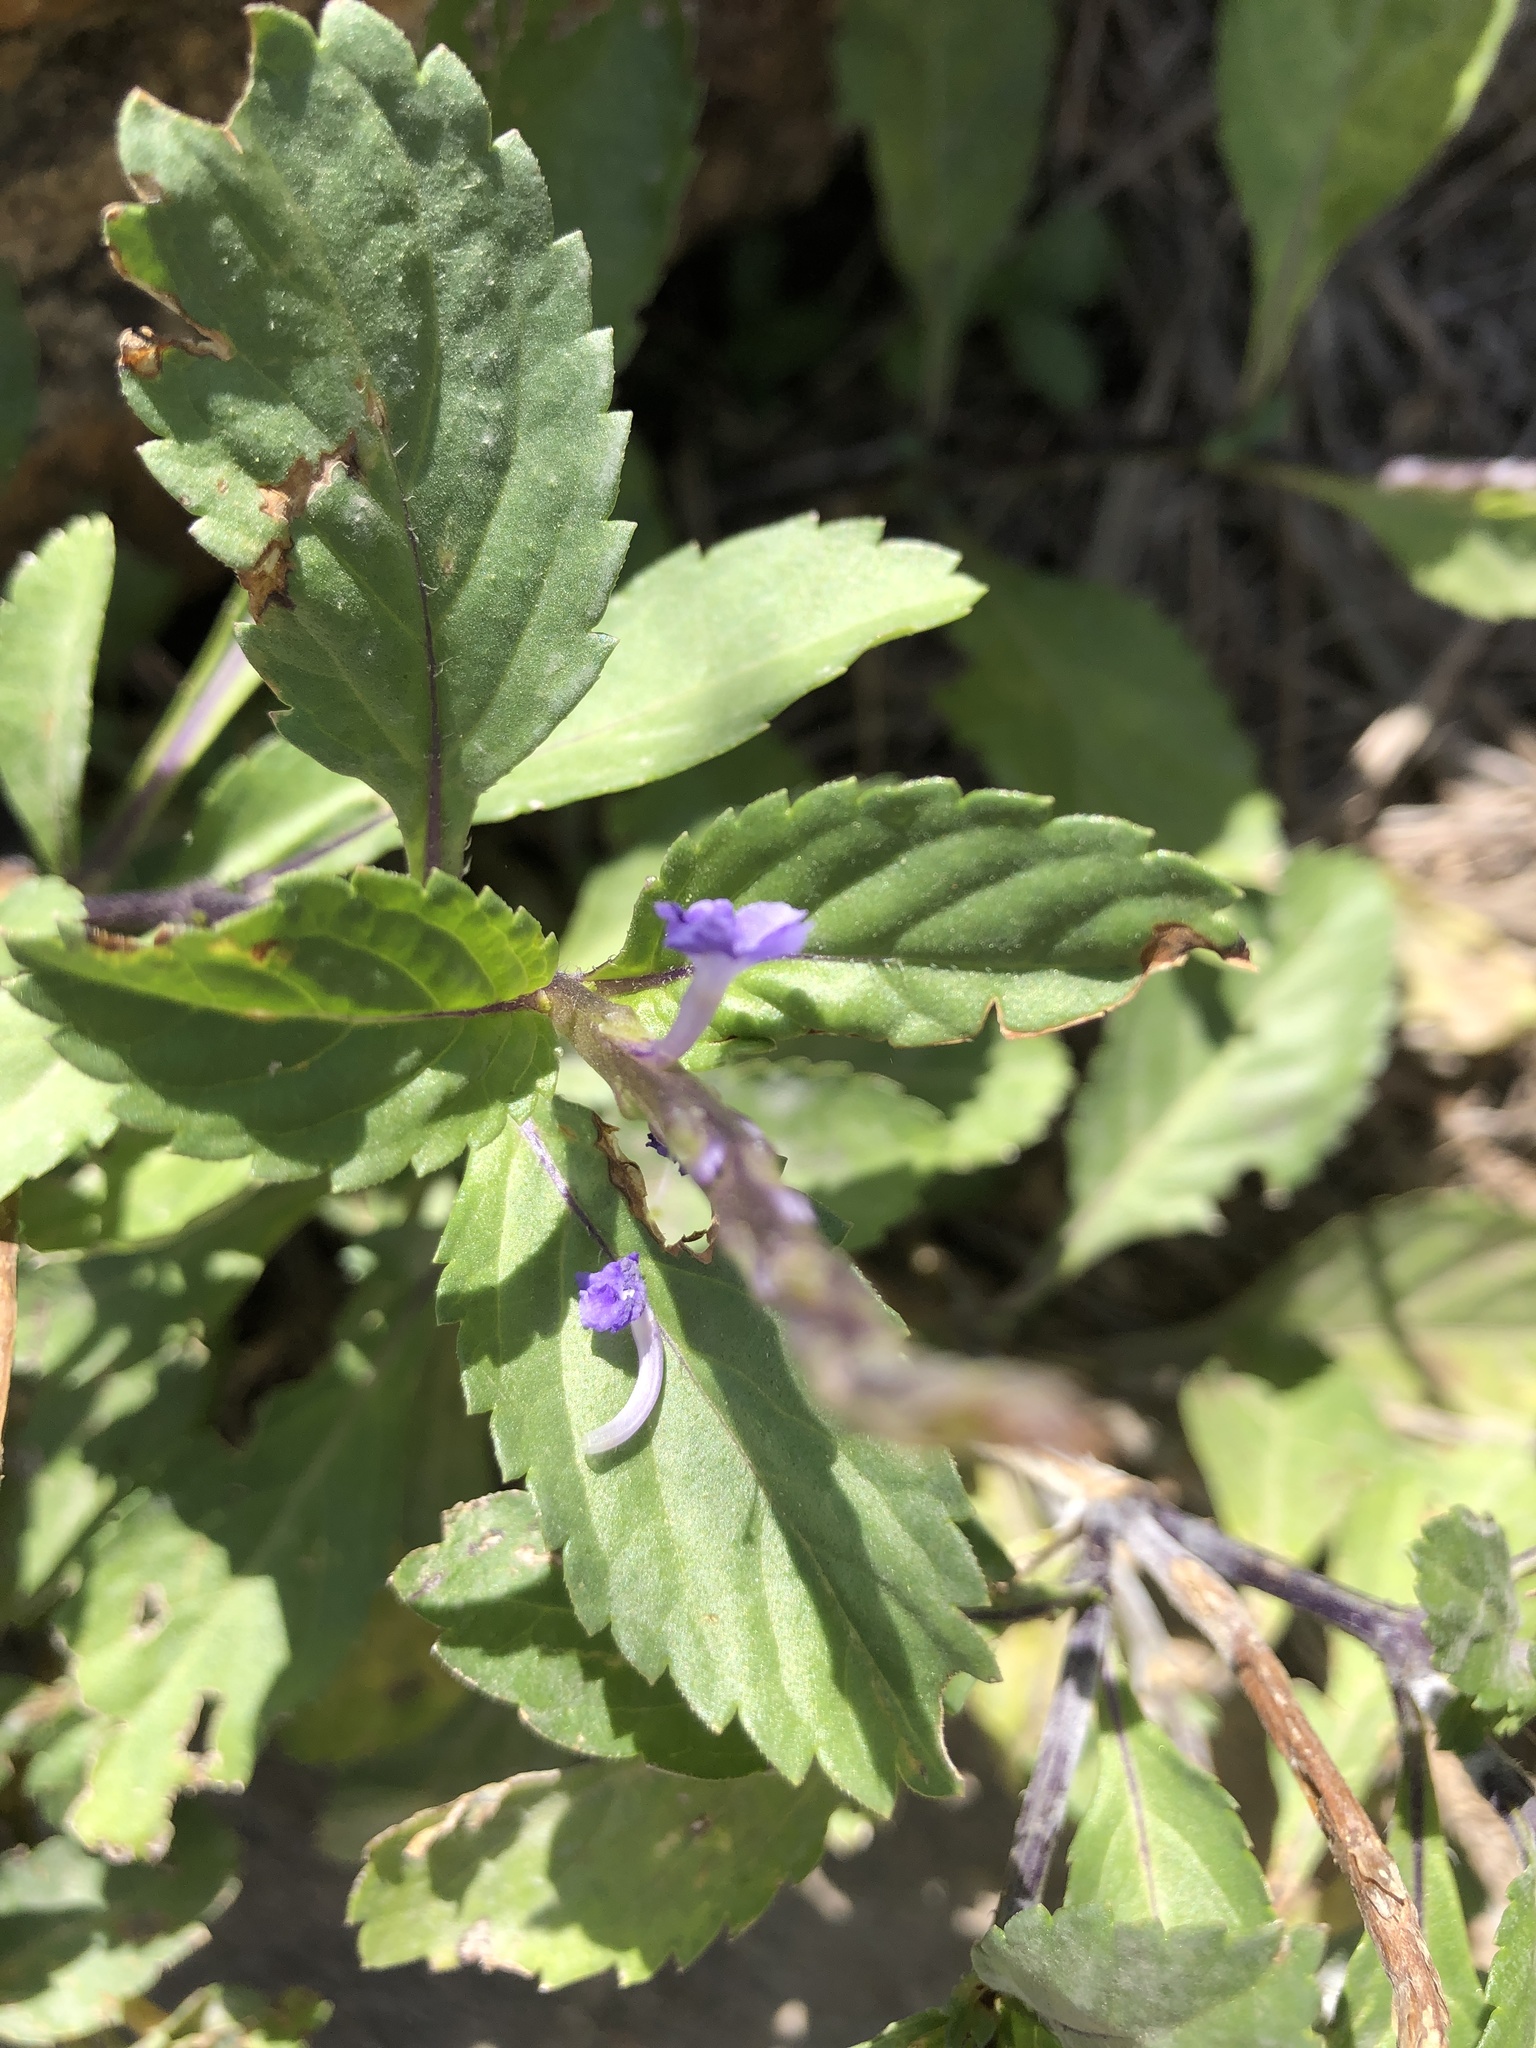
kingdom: Plantae
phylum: Tracheophyta
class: Magnoliopsida
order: Lamiales
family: Verbenaceae
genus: Stachytarpheta
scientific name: Stachytarpheta jamaicensis
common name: Light-blue snakeweed
